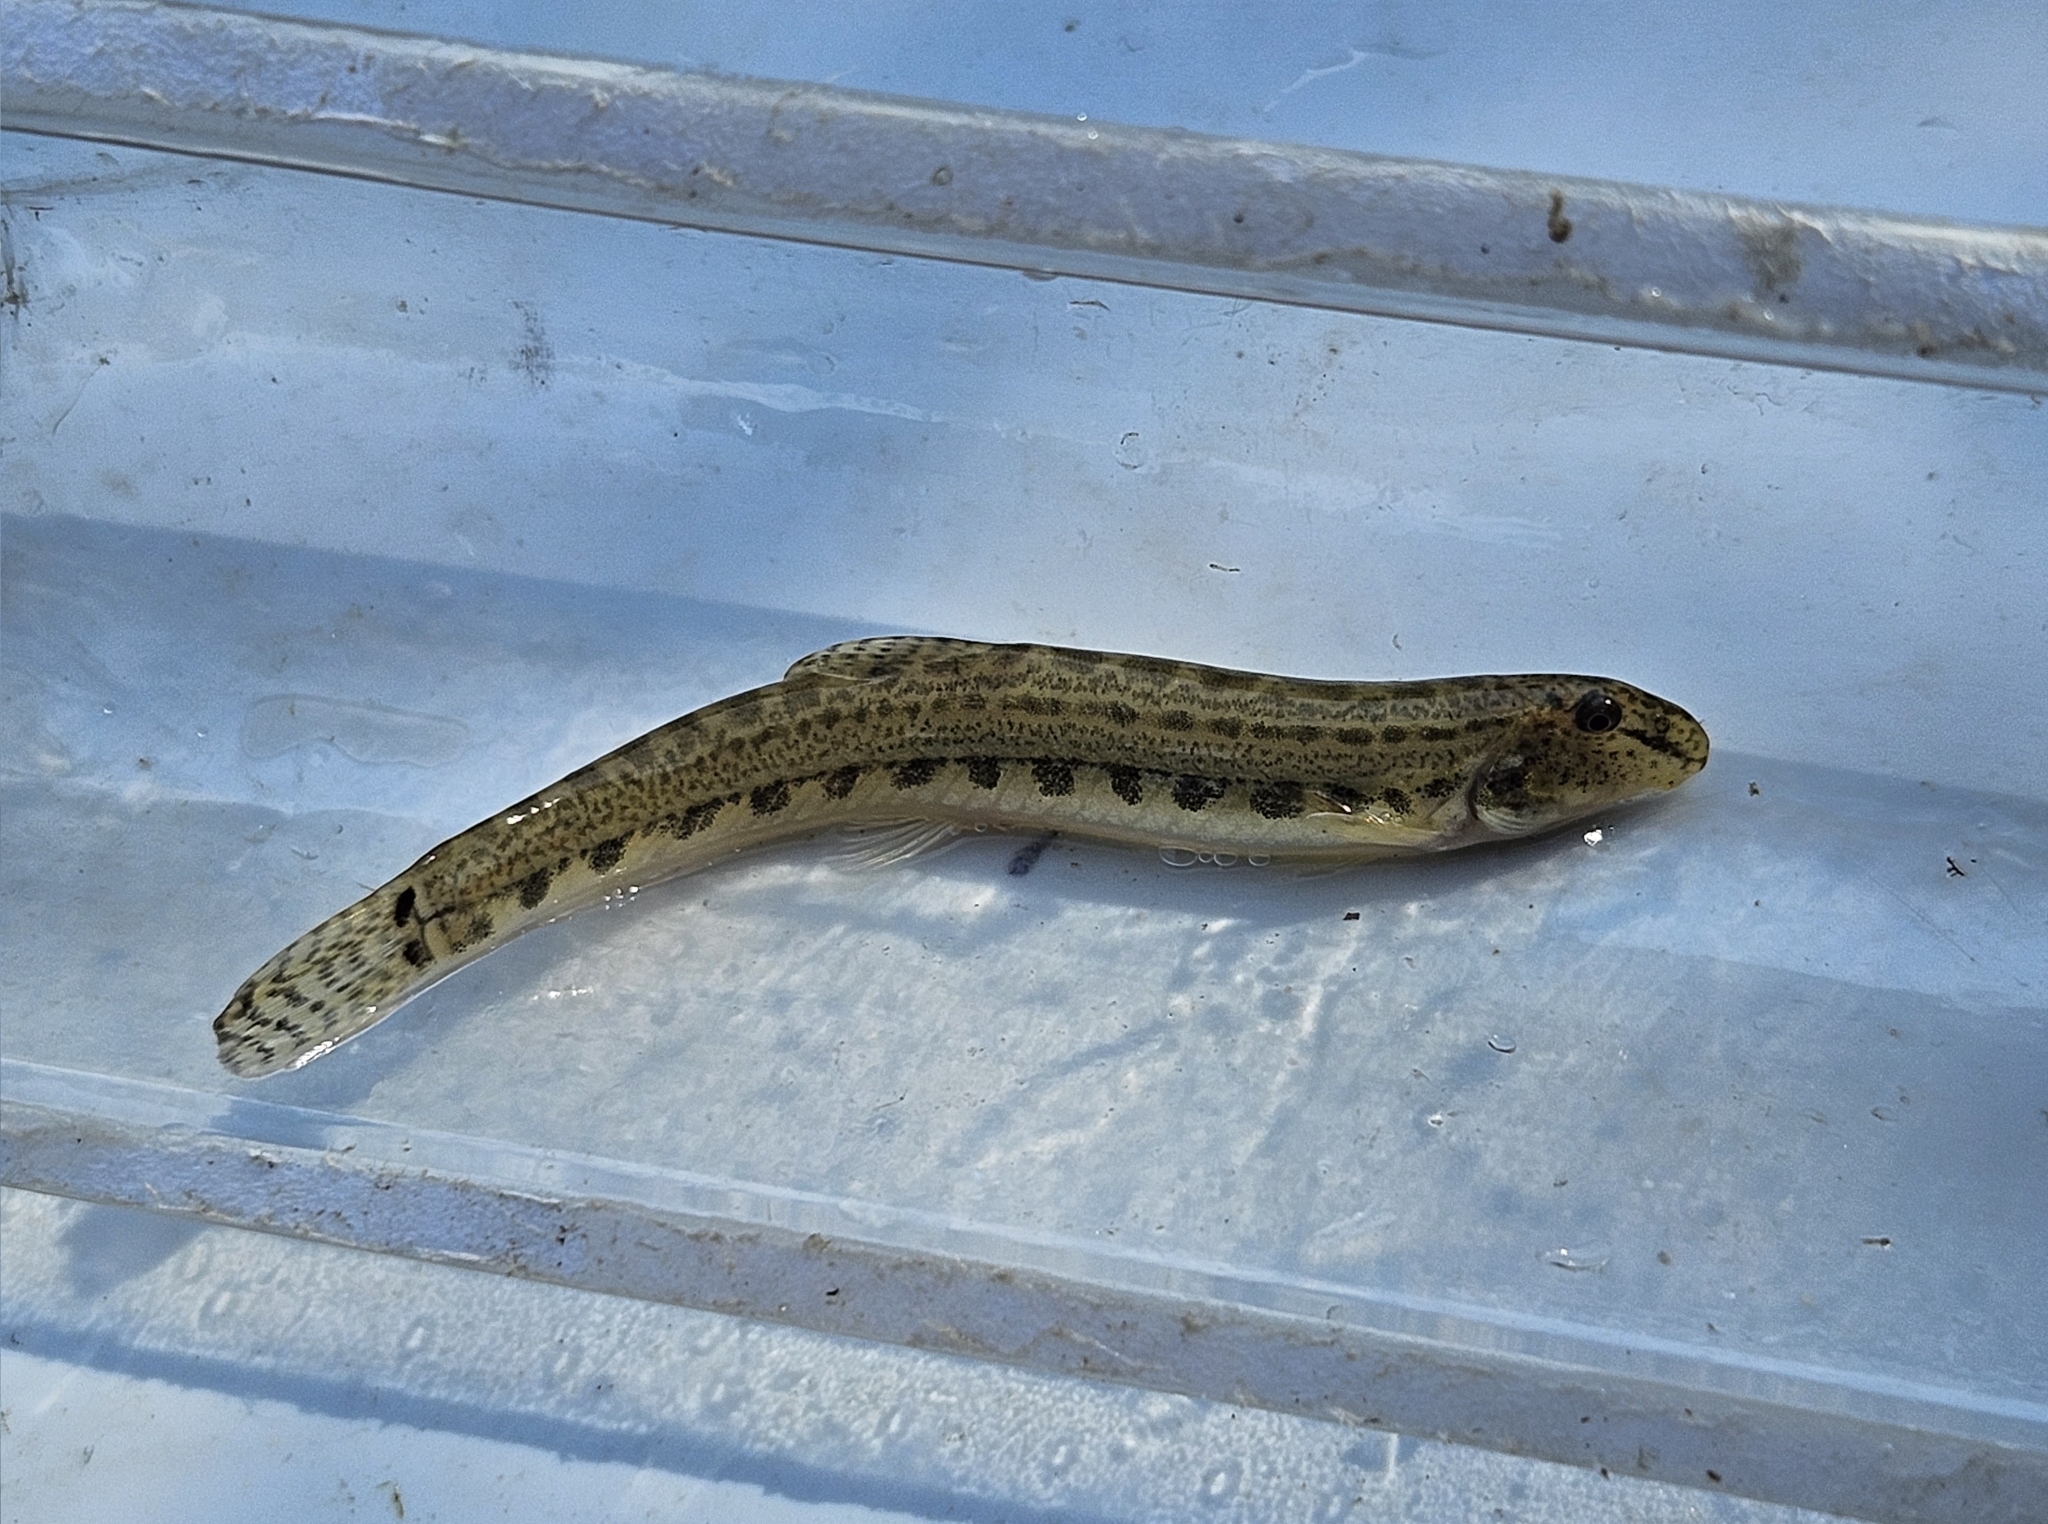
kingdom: Animalia
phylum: Chordata
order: Cypriniformes
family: Cobitidae
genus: Cobitis
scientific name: Cobitis bilineata
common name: Italian spined loach
